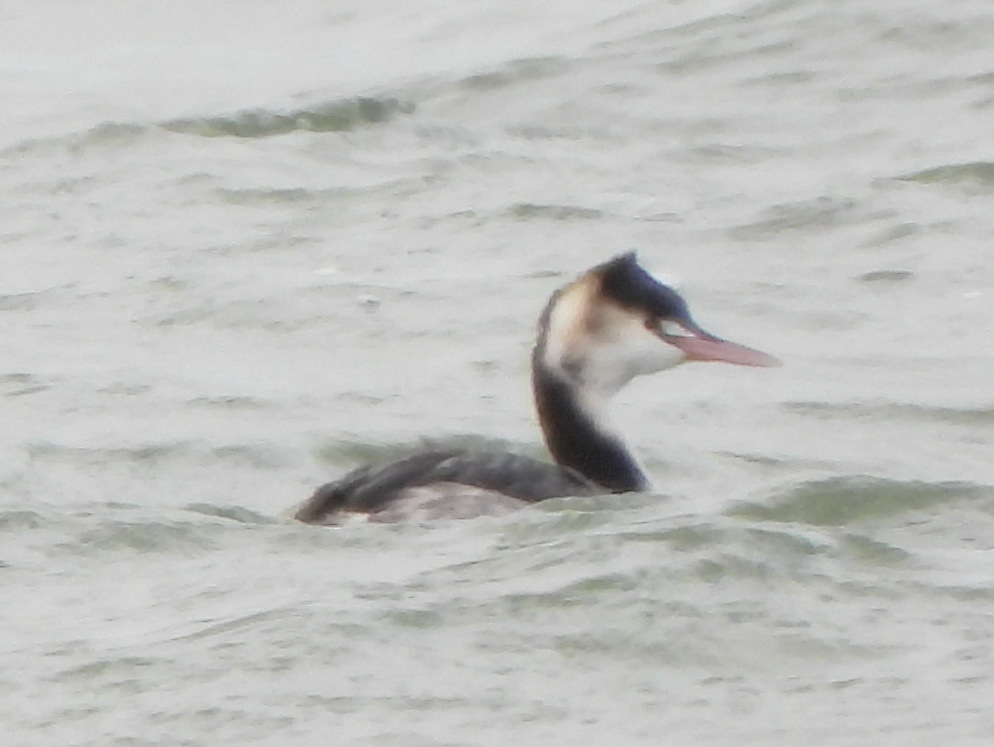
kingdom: Animalia
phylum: Chordata
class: Aves
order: Podicipediformes
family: Podicipedidae
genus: Podiceps
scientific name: Podiceps cristatus
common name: Great crested grebe
